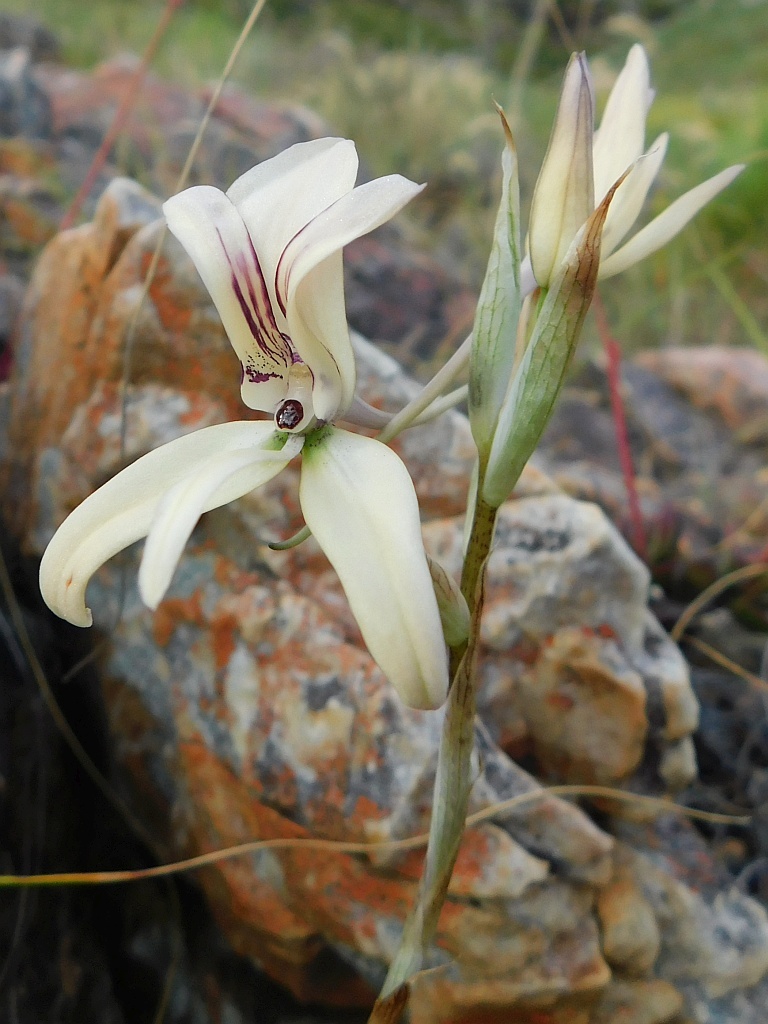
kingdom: Plantae
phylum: Tracheophyta
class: Liliopsida
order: Asparagales
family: Orchidaceae
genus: Disa
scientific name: Disa harveyana
